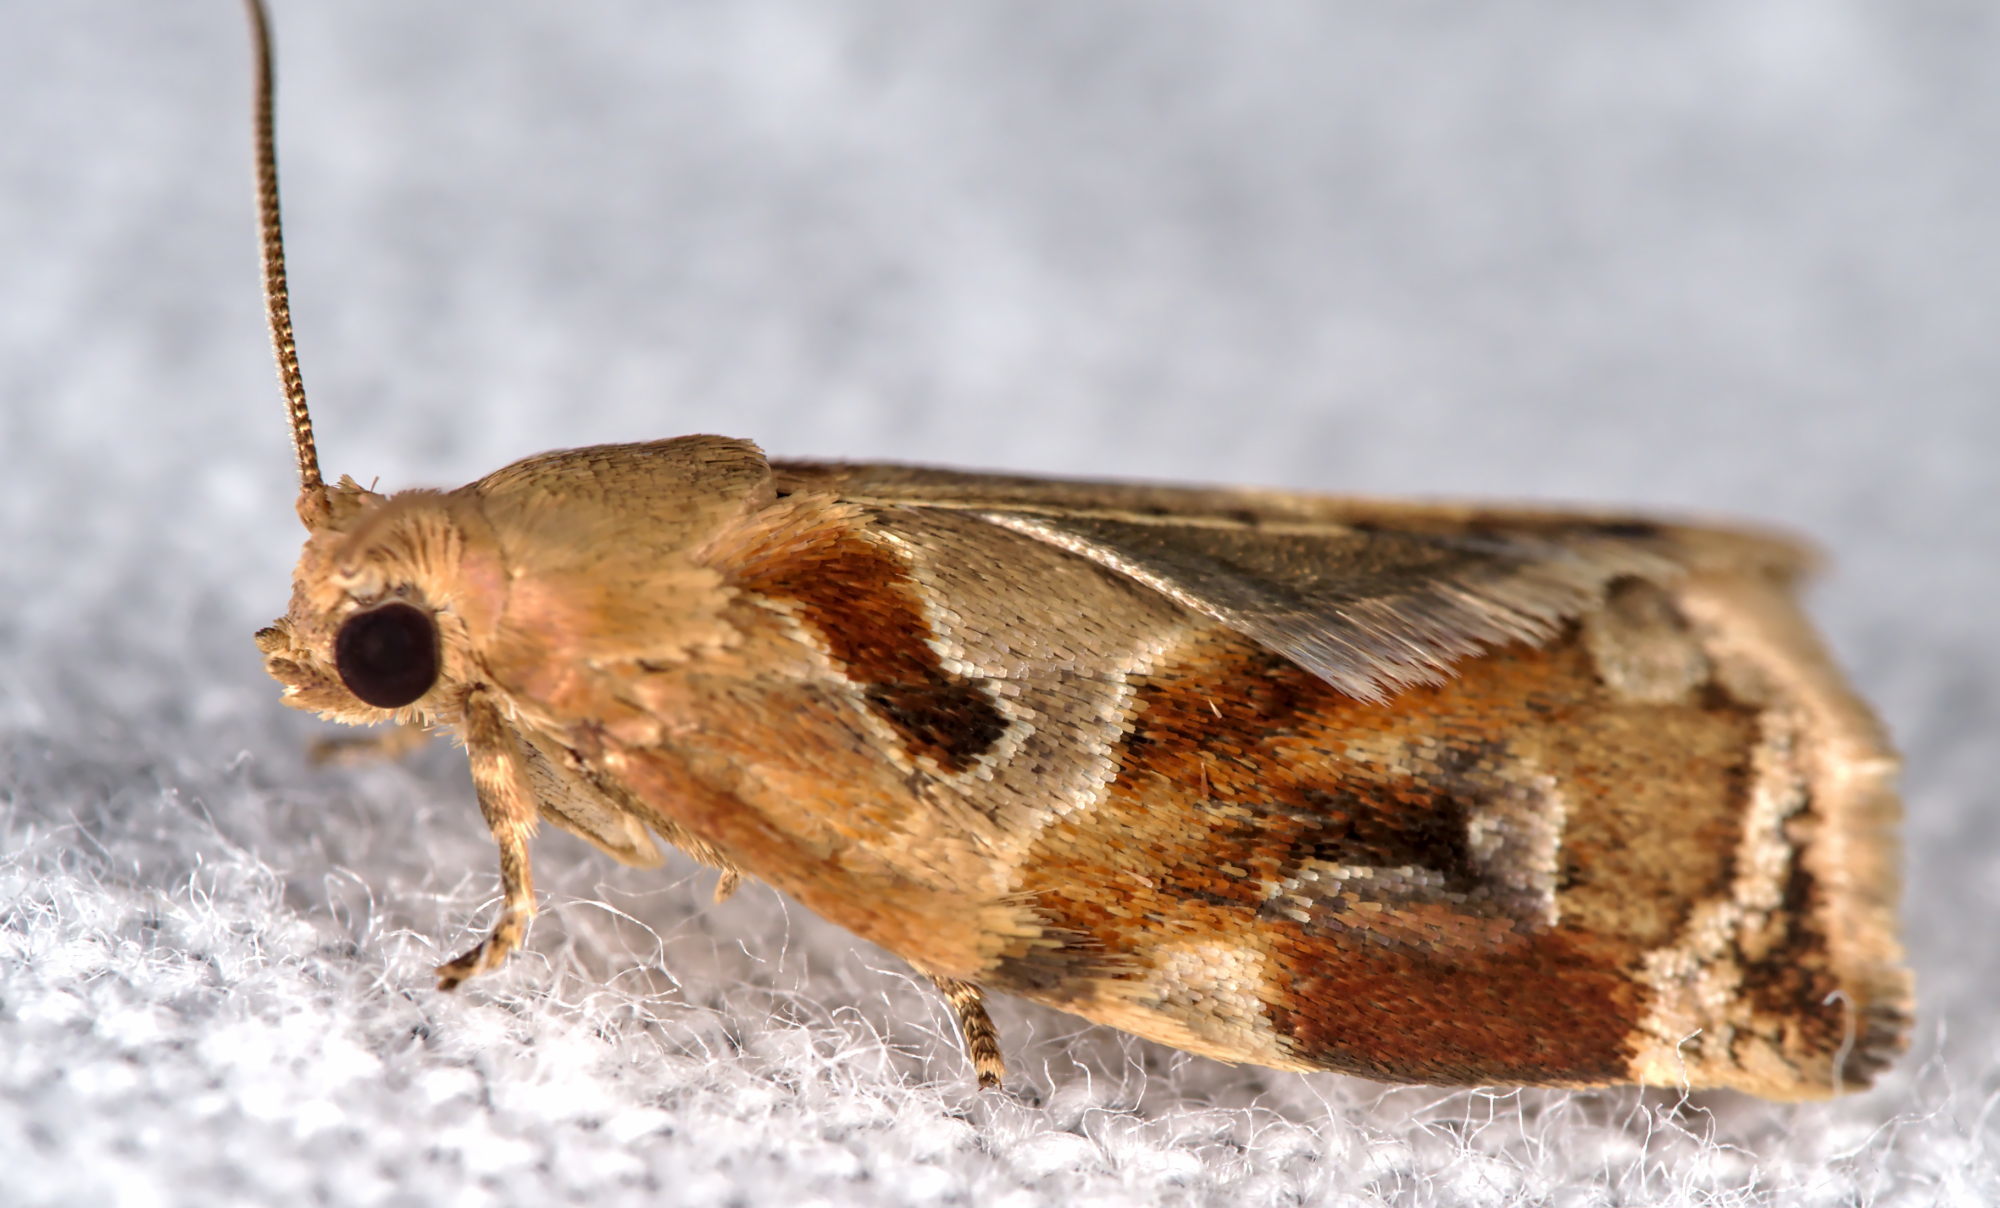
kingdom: Animalia
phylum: Arthropoda
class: Insecta
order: Lepidoptera
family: Tortricidae
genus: Archips
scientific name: Archips xylosteana
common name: Variegated golden tortrix
